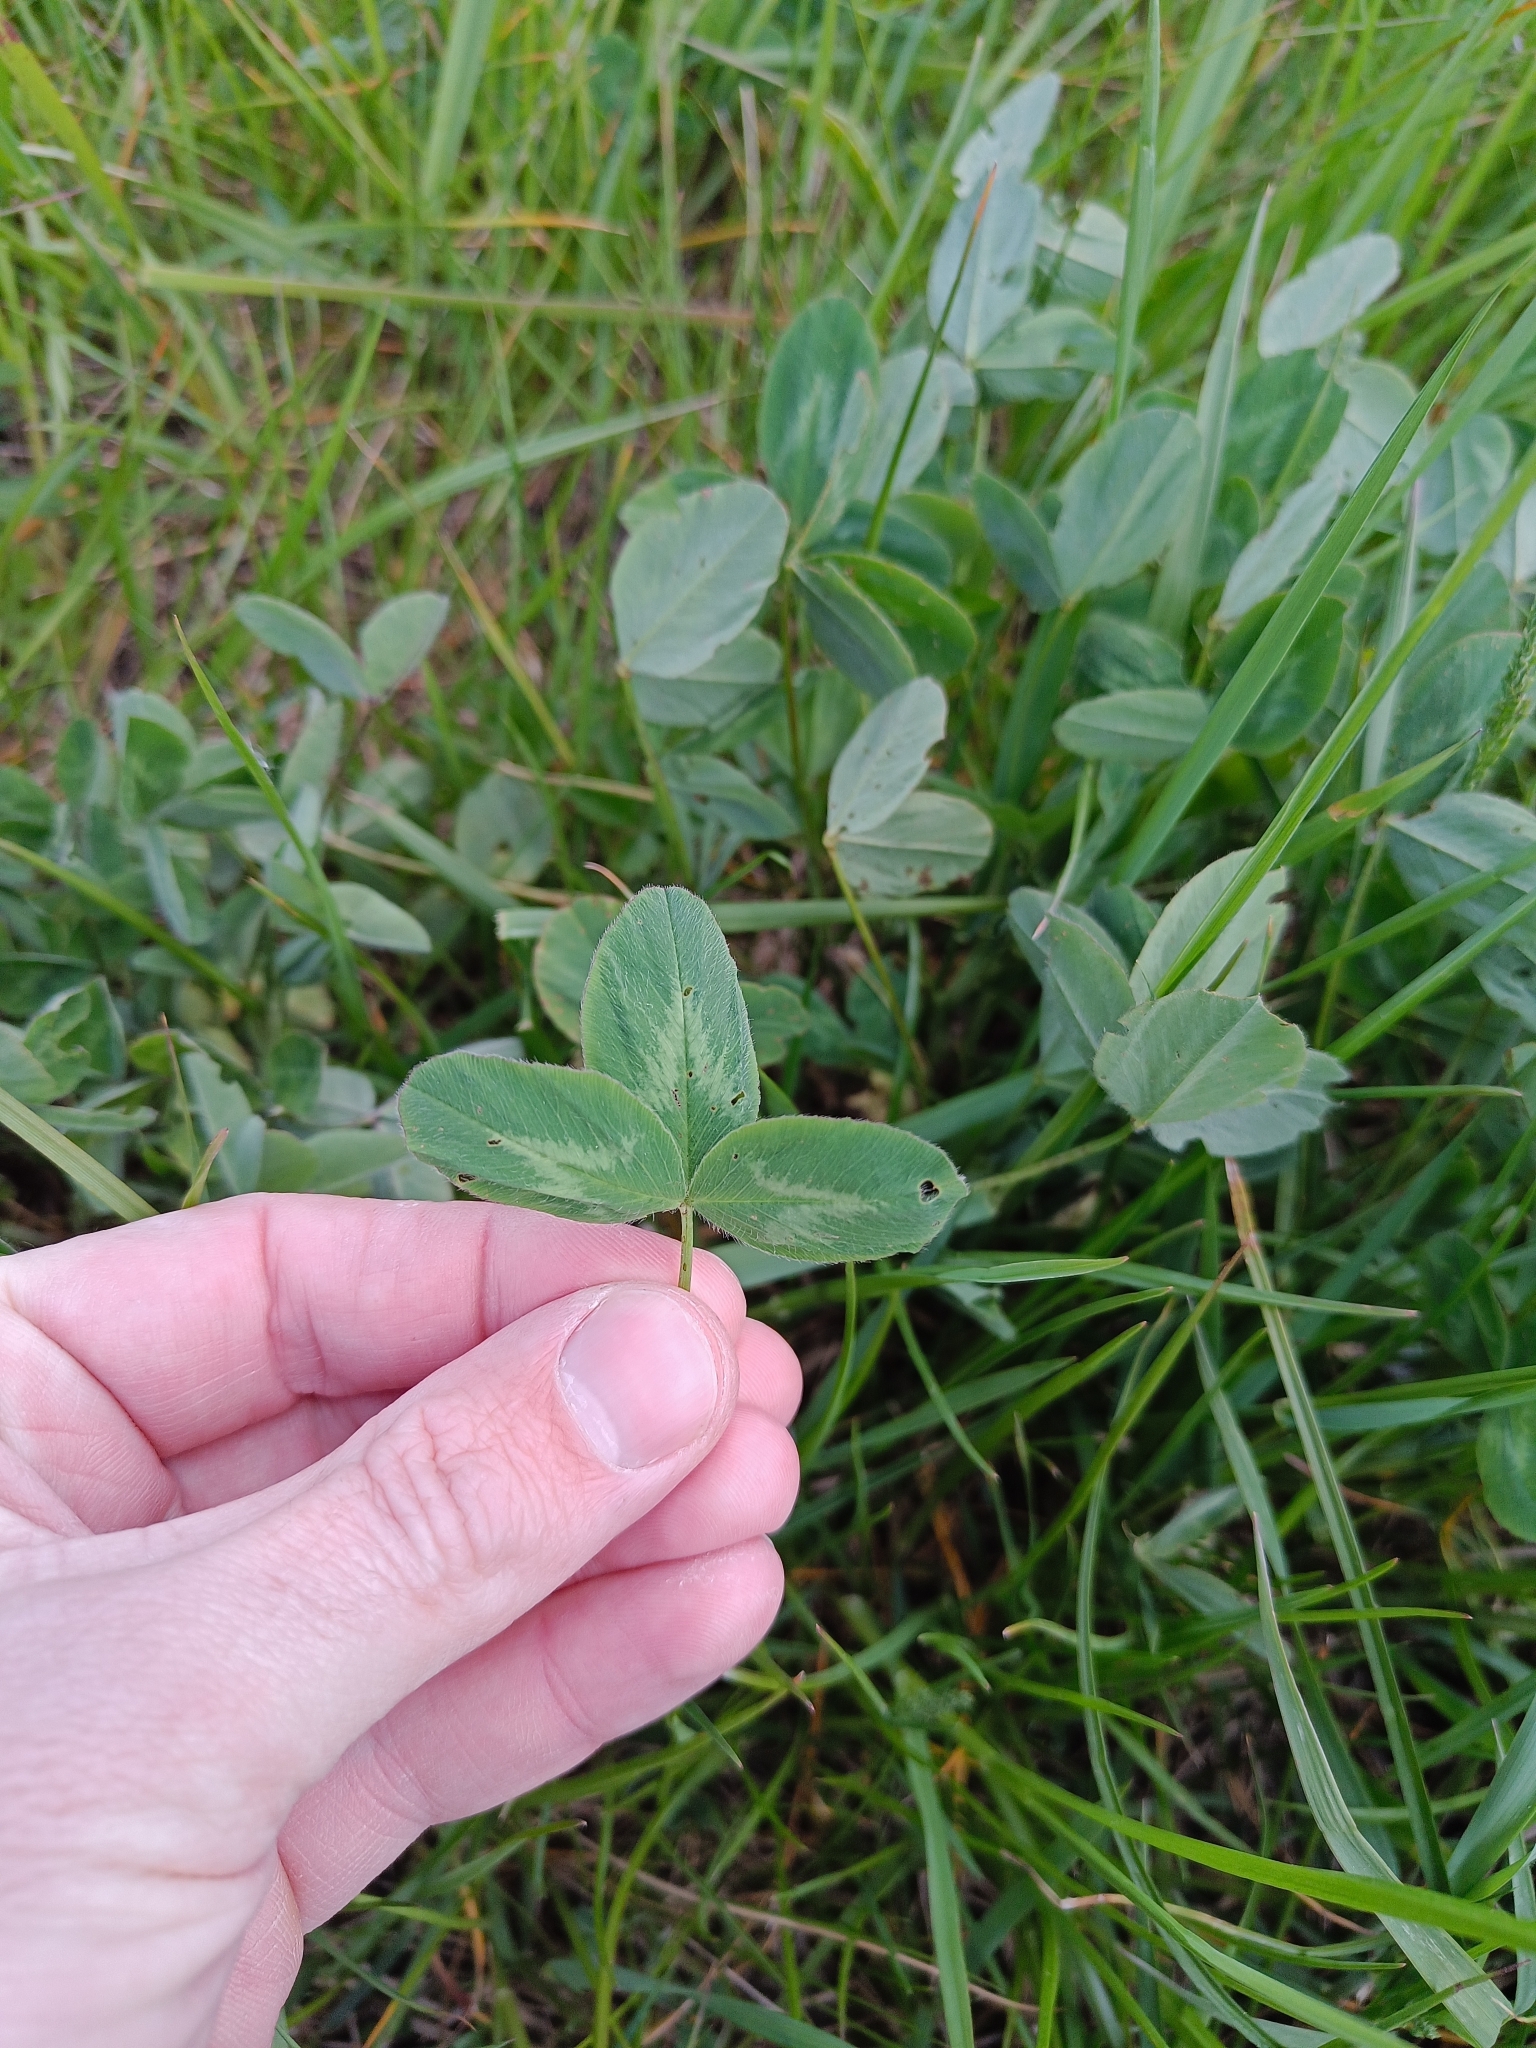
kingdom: Plantae
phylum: Tracheophyta
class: Magnoliopsida
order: Fabales
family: Fabaceae
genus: Trifolium
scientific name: Trifolium pratense
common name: Red clover
